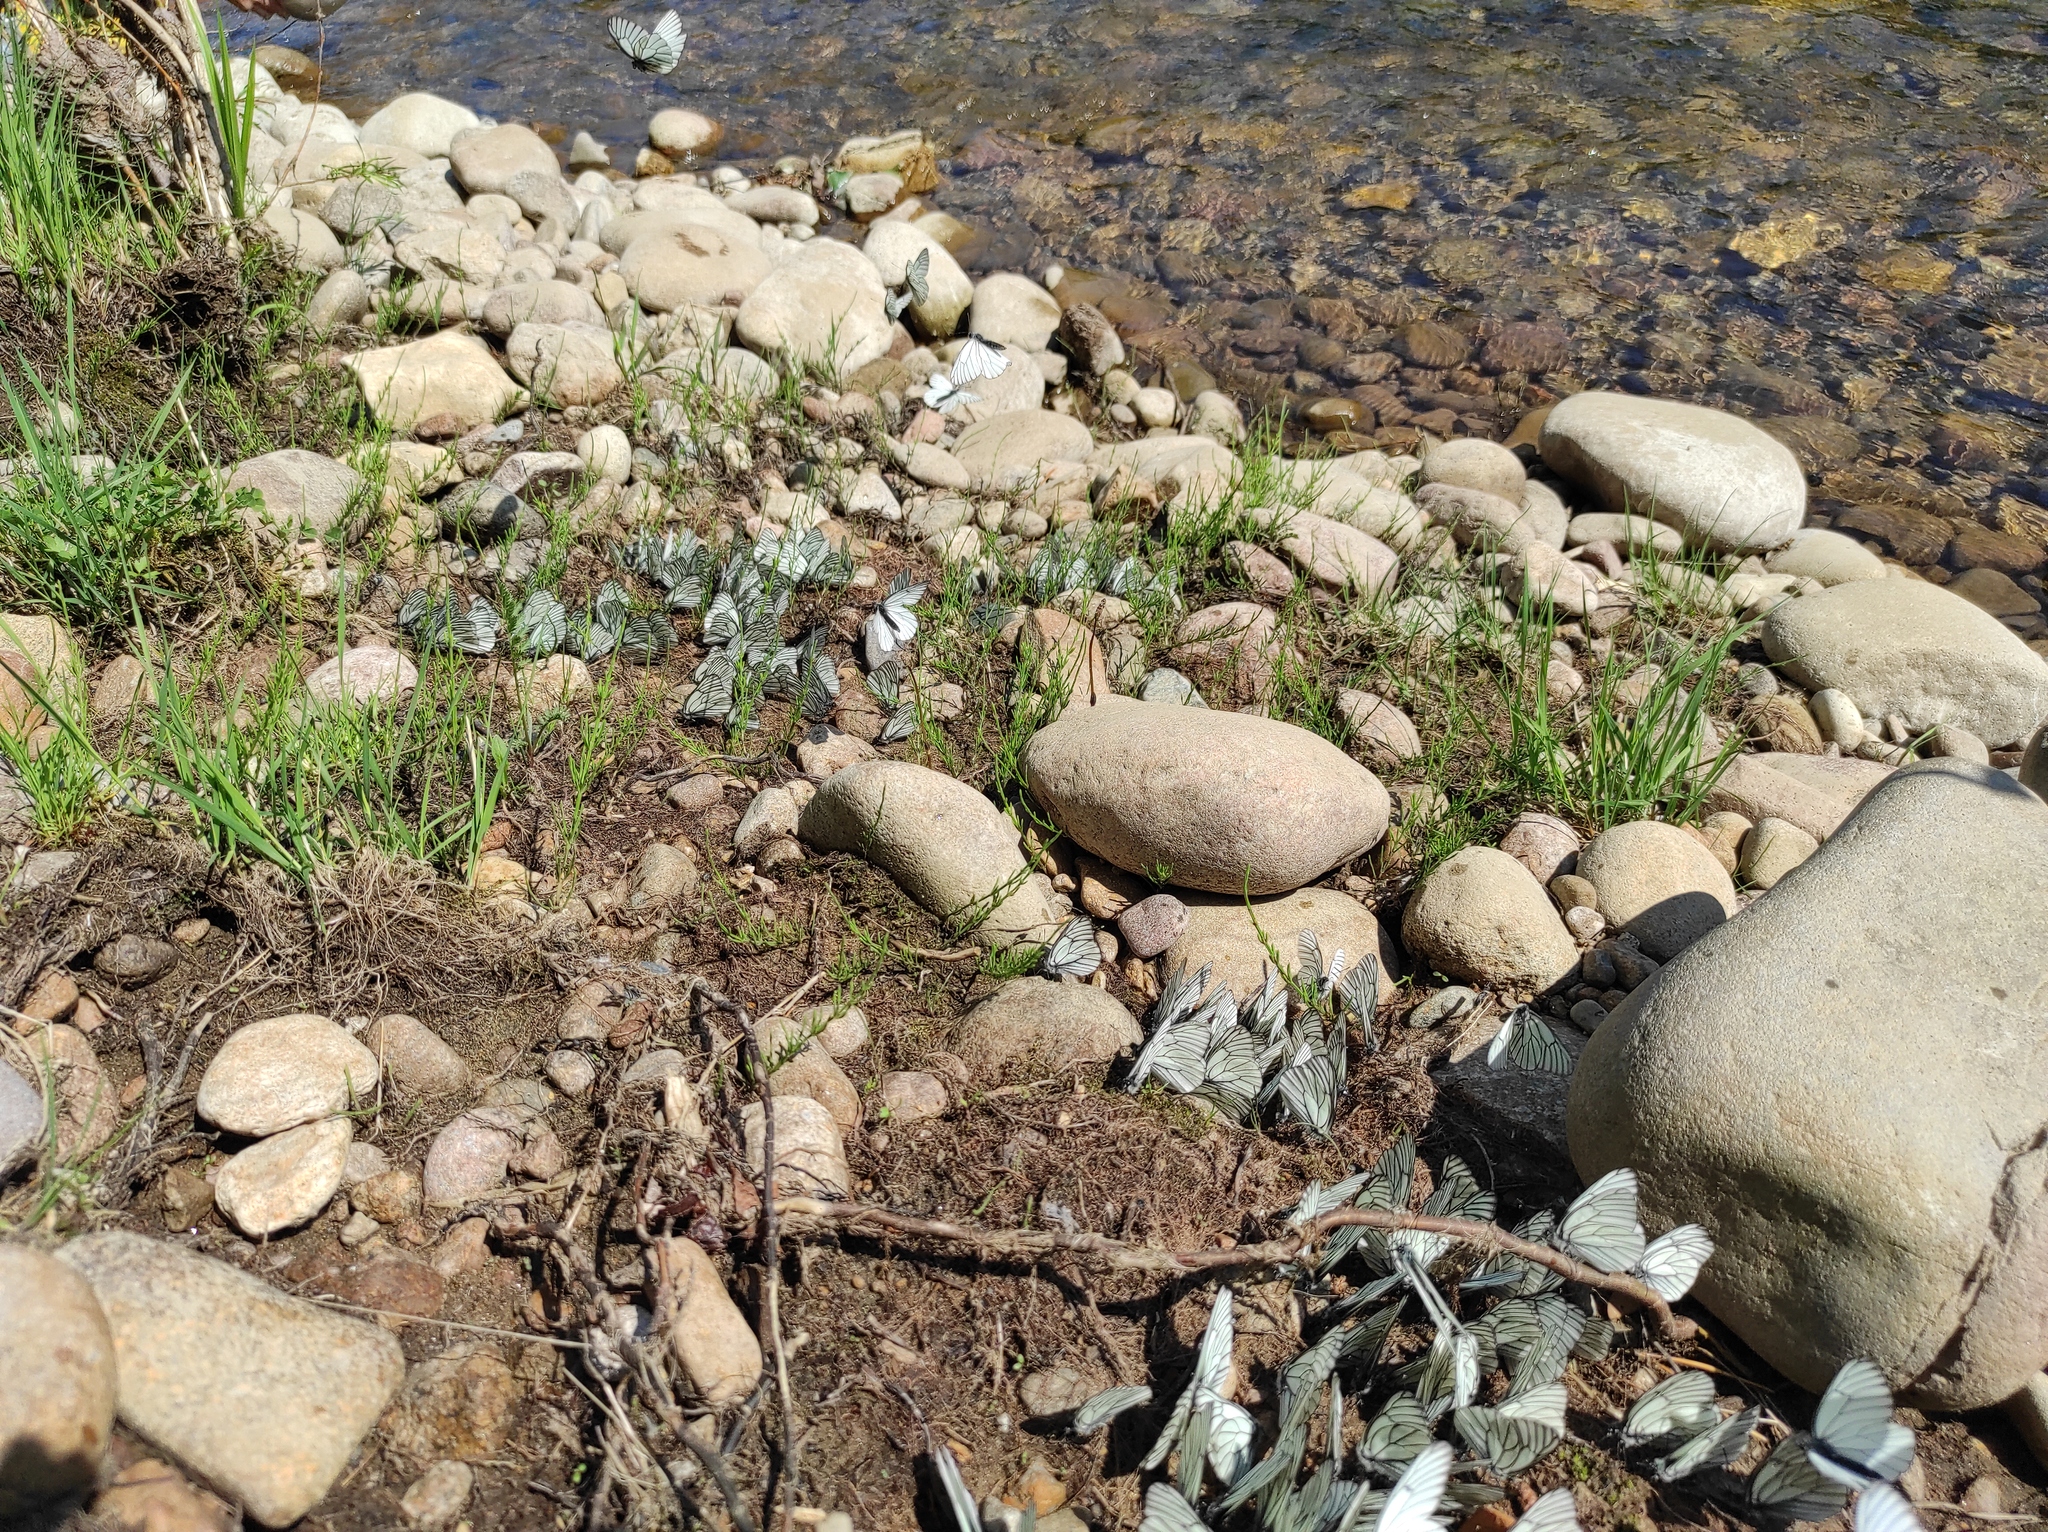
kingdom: Animalia
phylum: Arthropoda
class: Insecta
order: Lepidoptera
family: Pieridae
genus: Aporia
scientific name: Aporia crataegi
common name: Black-veined white
